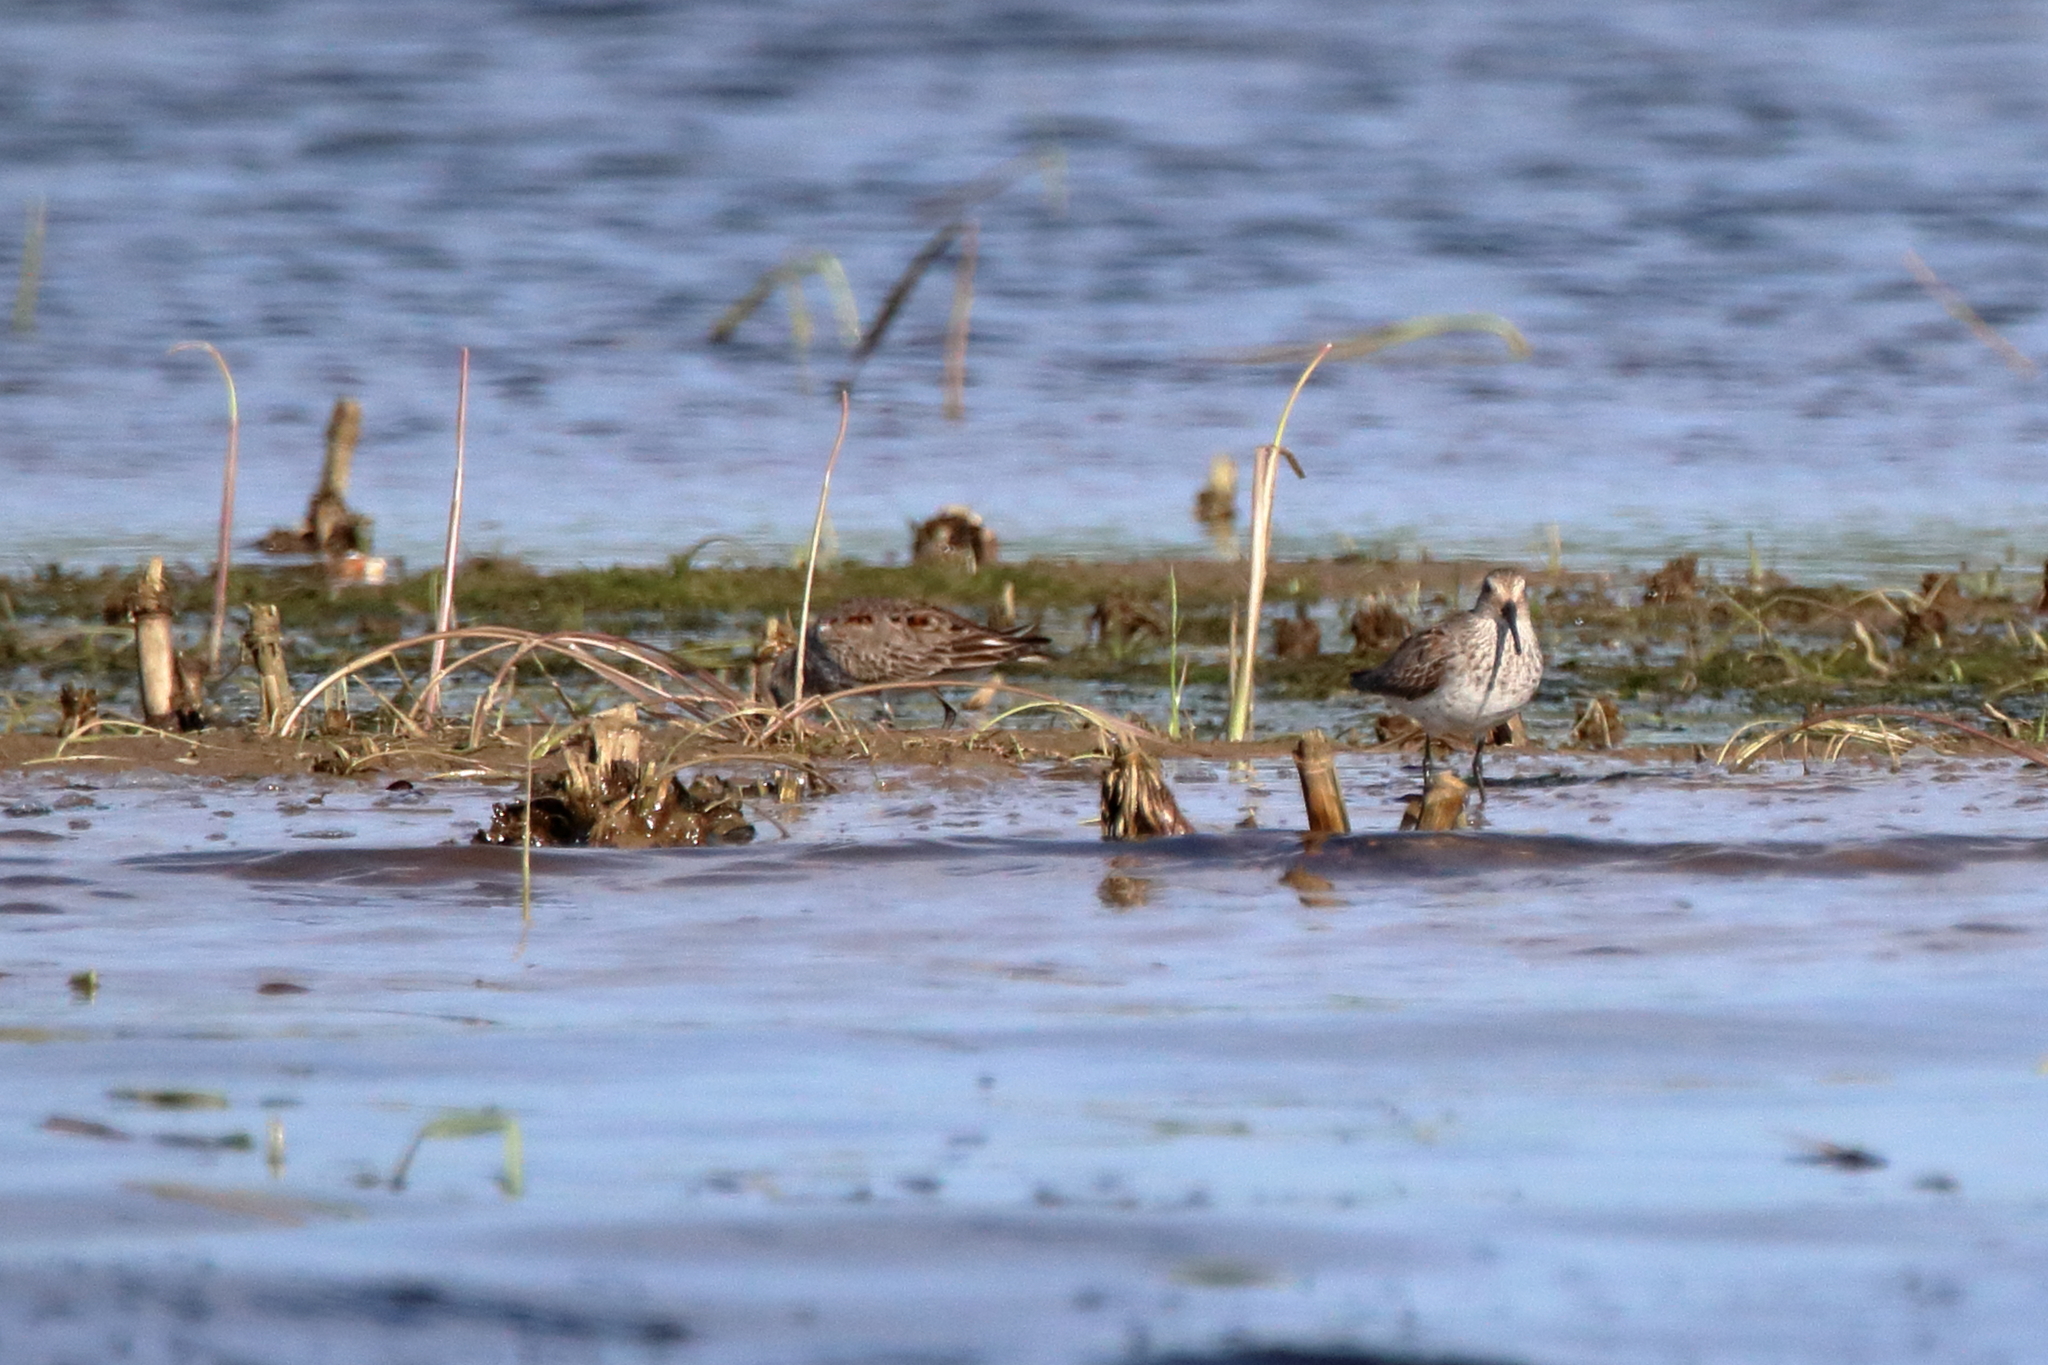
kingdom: Animalia
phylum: Chordata
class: Aves
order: Charadriiformes
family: Scolopacidae
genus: Calidris
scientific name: Calidris alpina
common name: Dunlin
